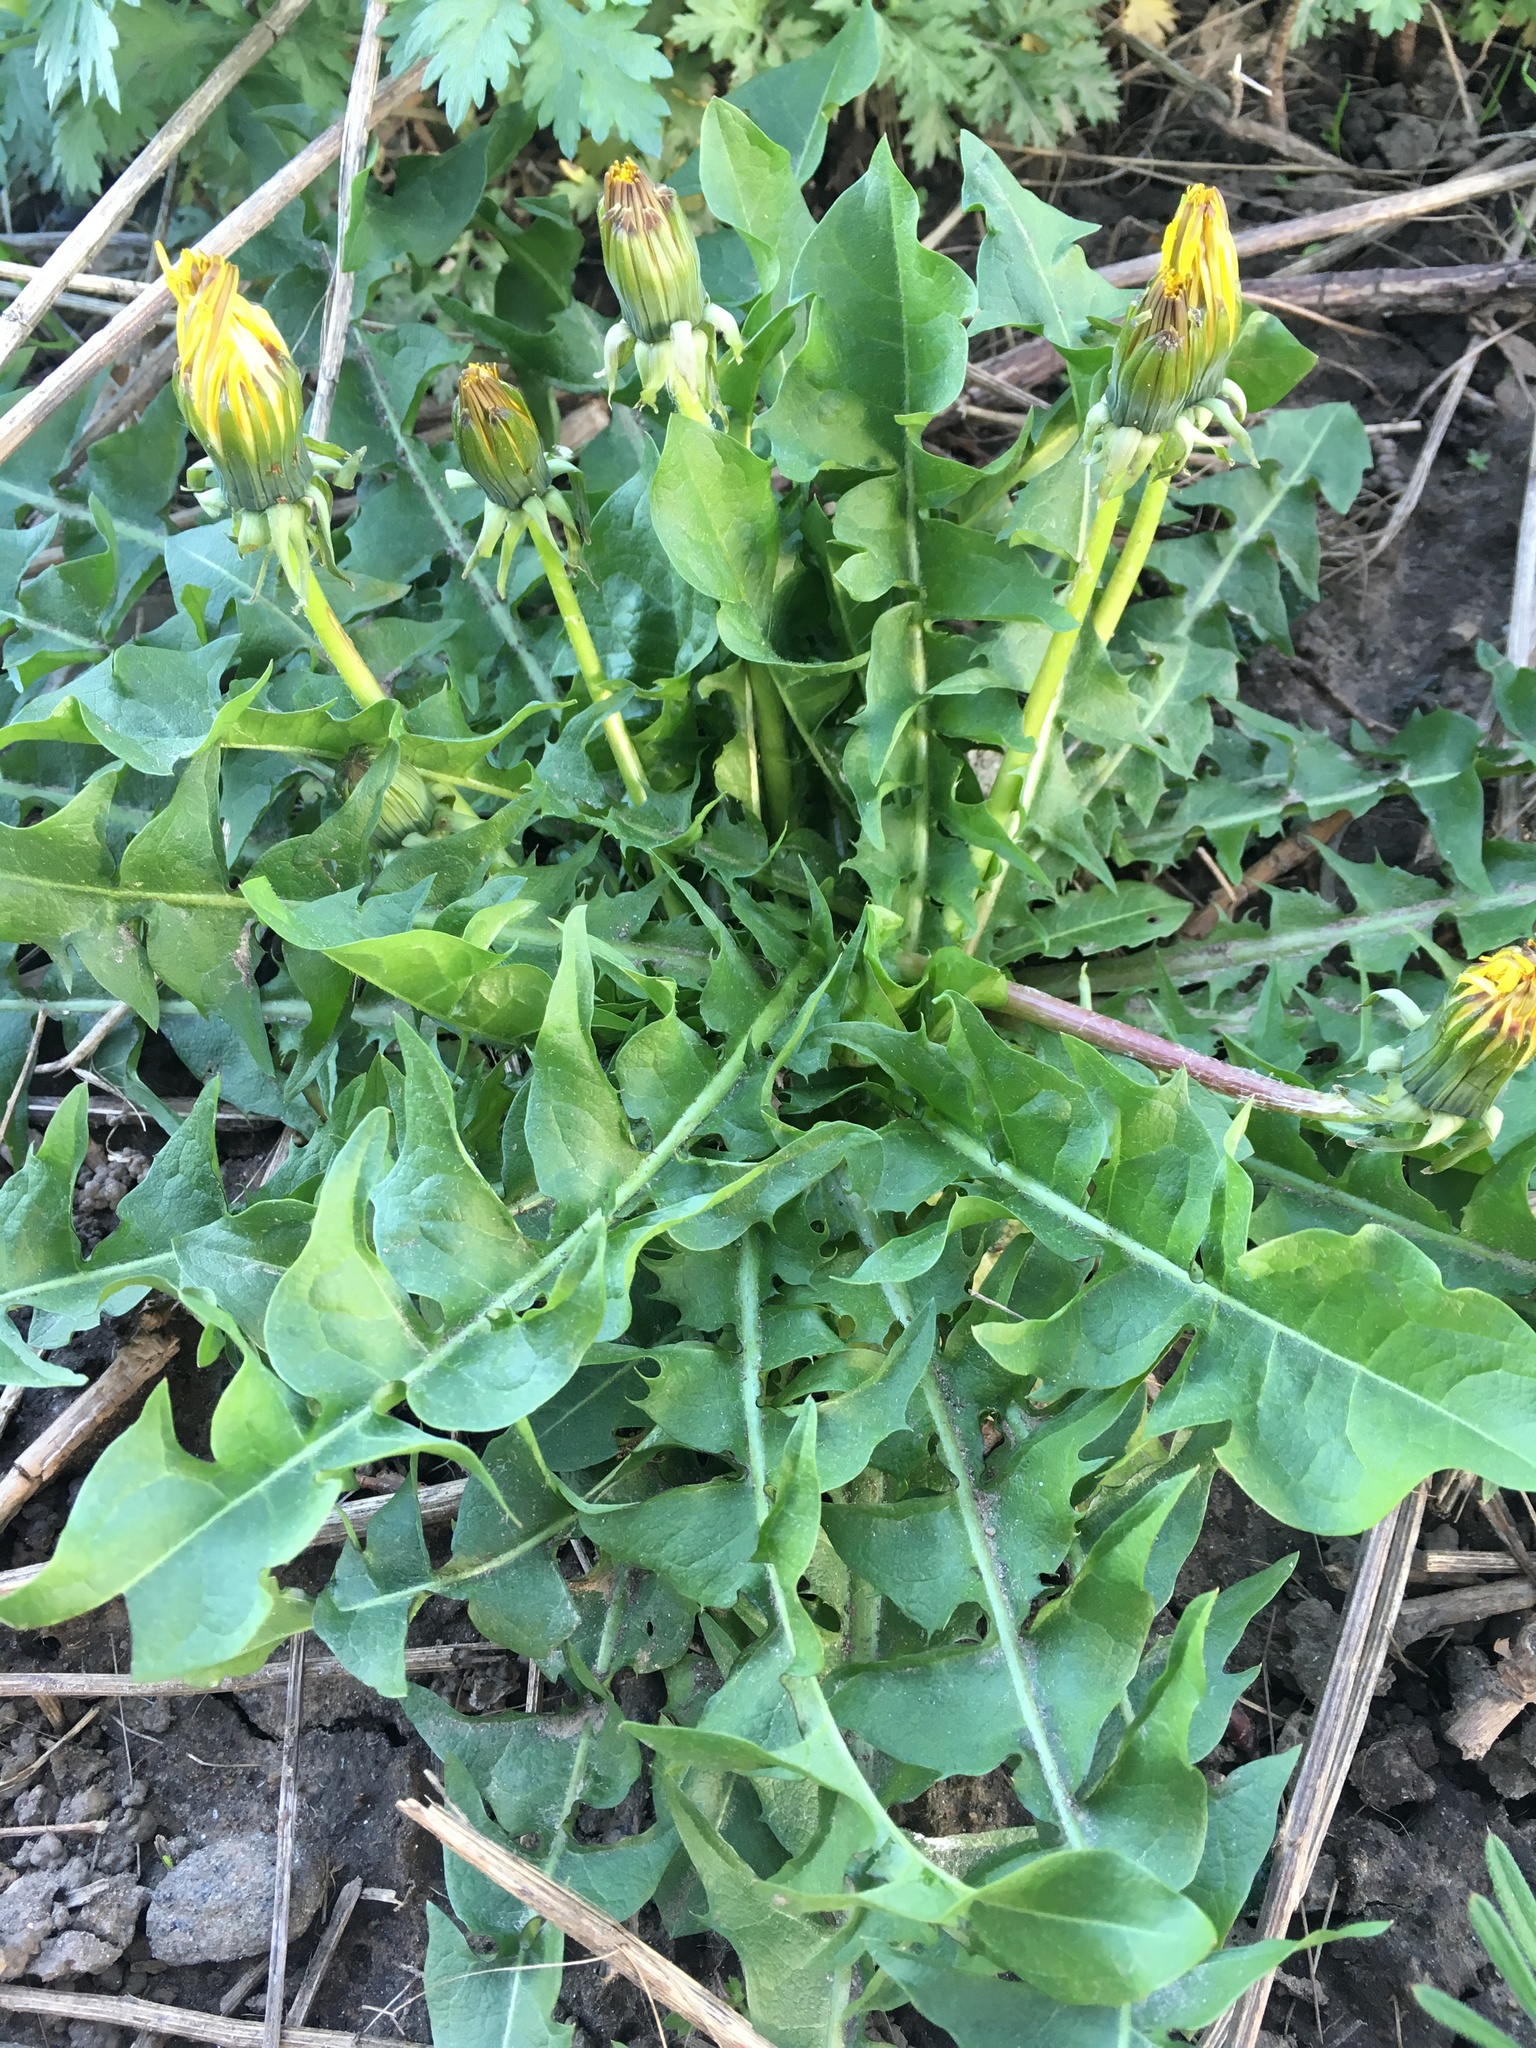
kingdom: Plantae
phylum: Tracheophyta
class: Magnoliopsida
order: Asterales
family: Asteraceae
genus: Taraxacum
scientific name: Taraxacum officinale
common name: Common dandelion
